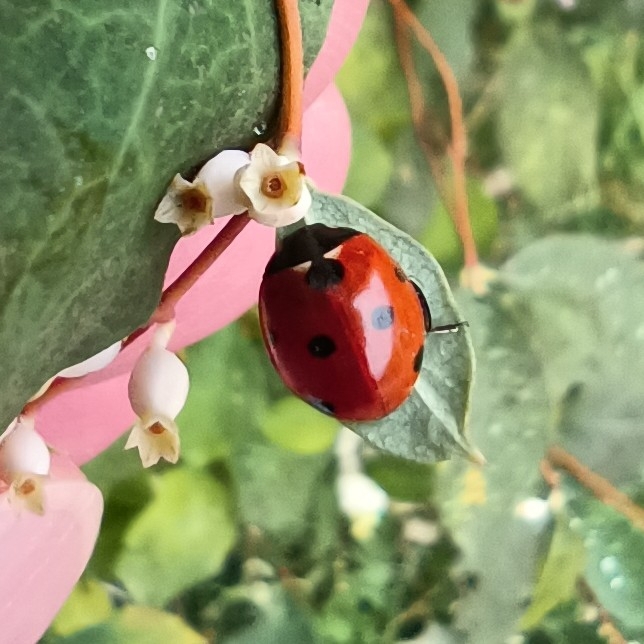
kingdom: Animalia
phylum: Arthropoda
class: Insecta
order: Coleoptera
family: Coccinellidae
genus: Coccinella
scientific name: Coccinella septempunctata
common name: Sevenspotted lady beetle
